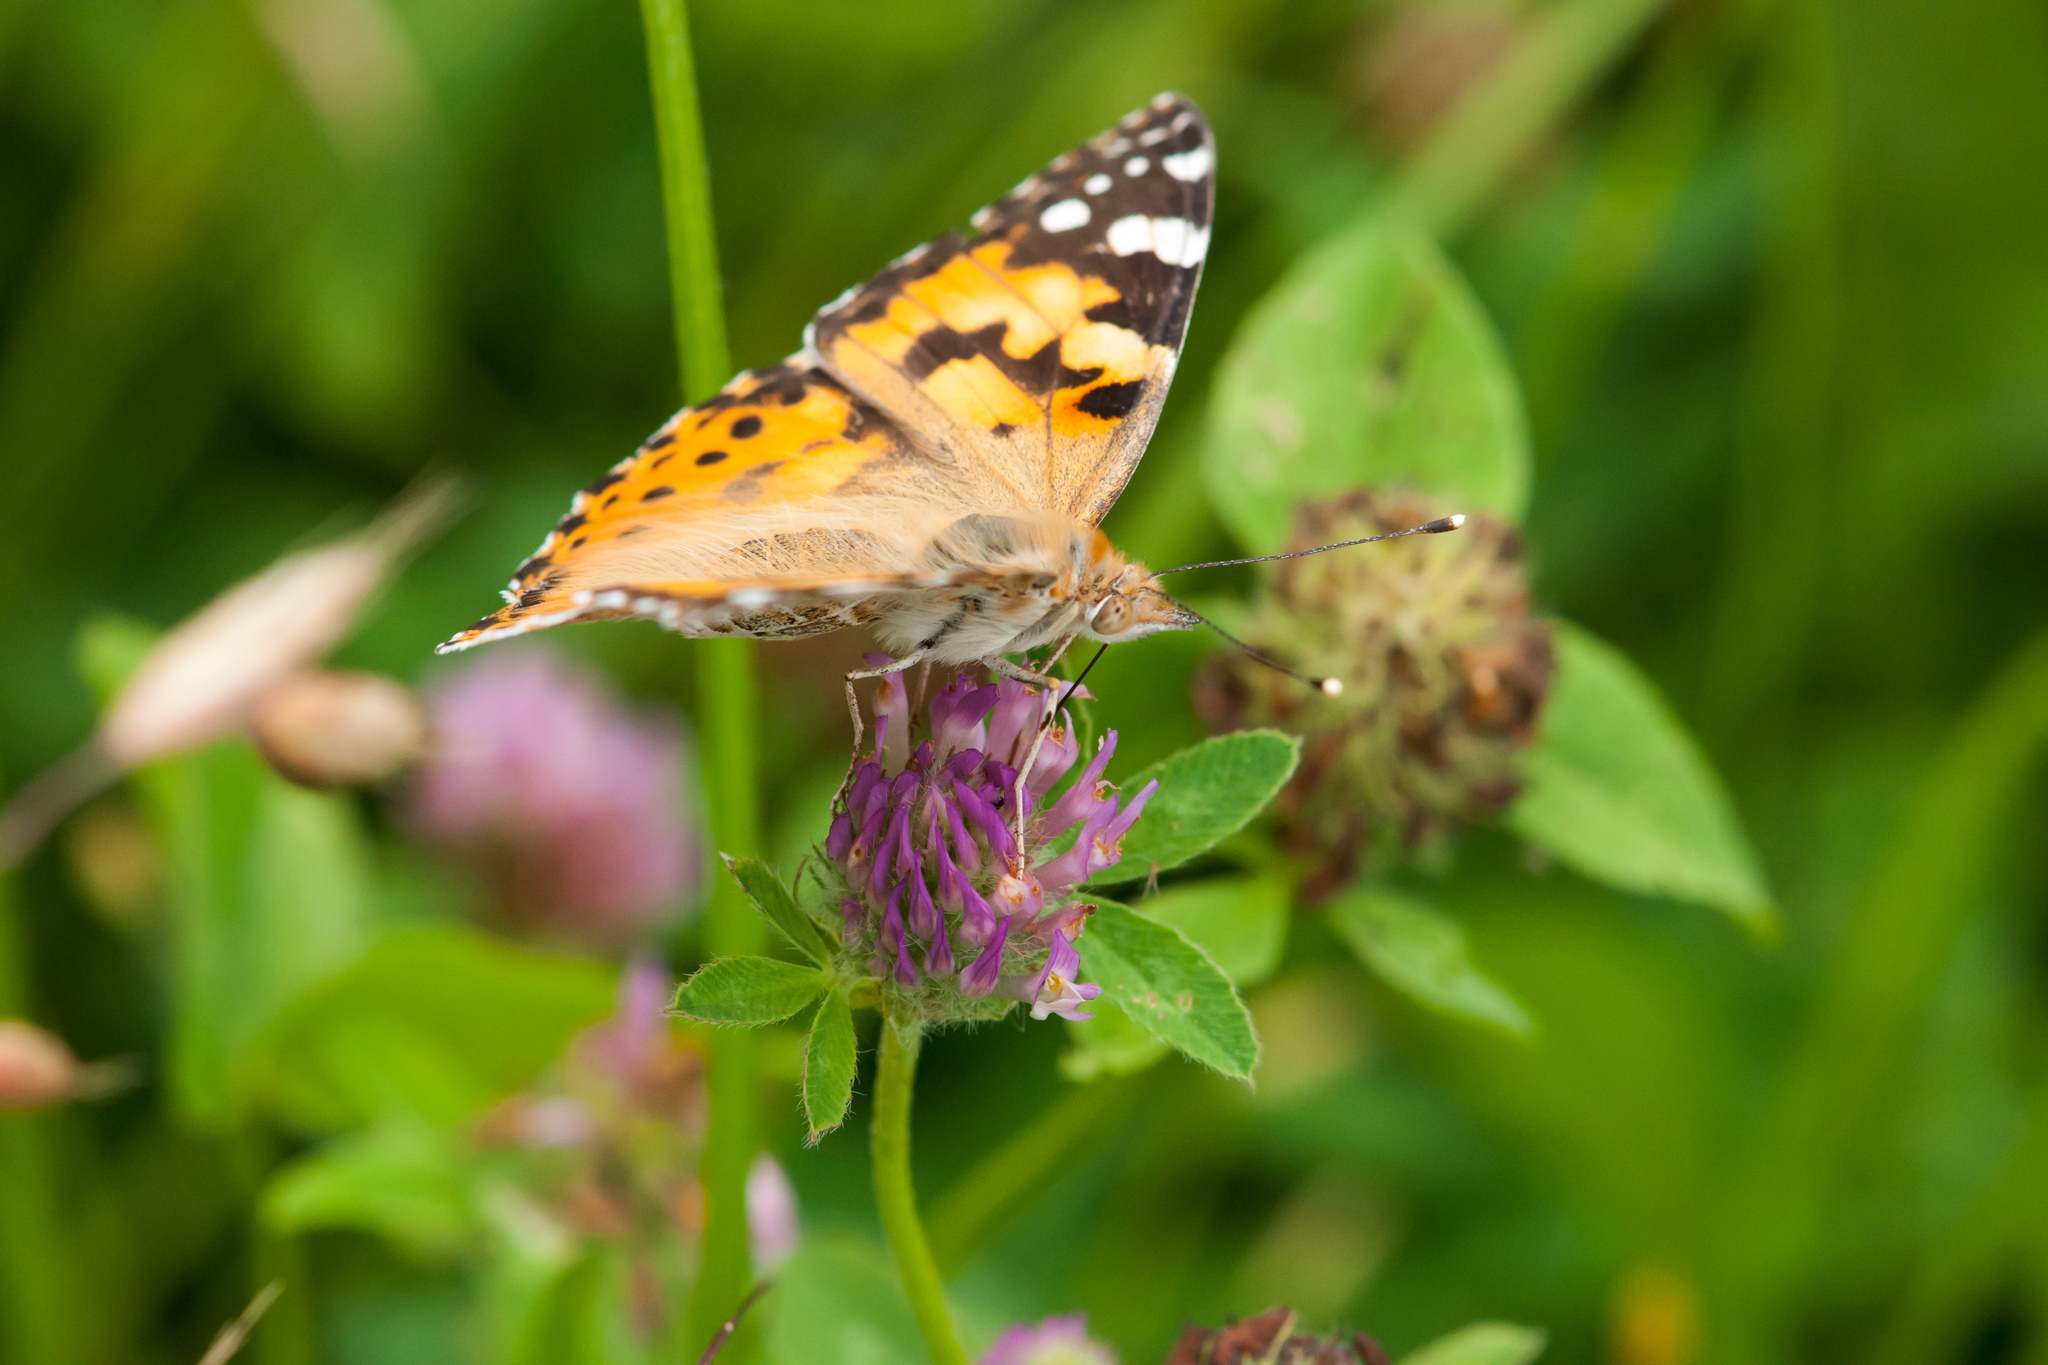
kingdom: Animalia
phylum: Arthropoda
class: Insecta
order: Lepidoptera
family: Nymphalidae
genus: Vanessa
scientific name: Vanessa cardui
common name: Painted lady
